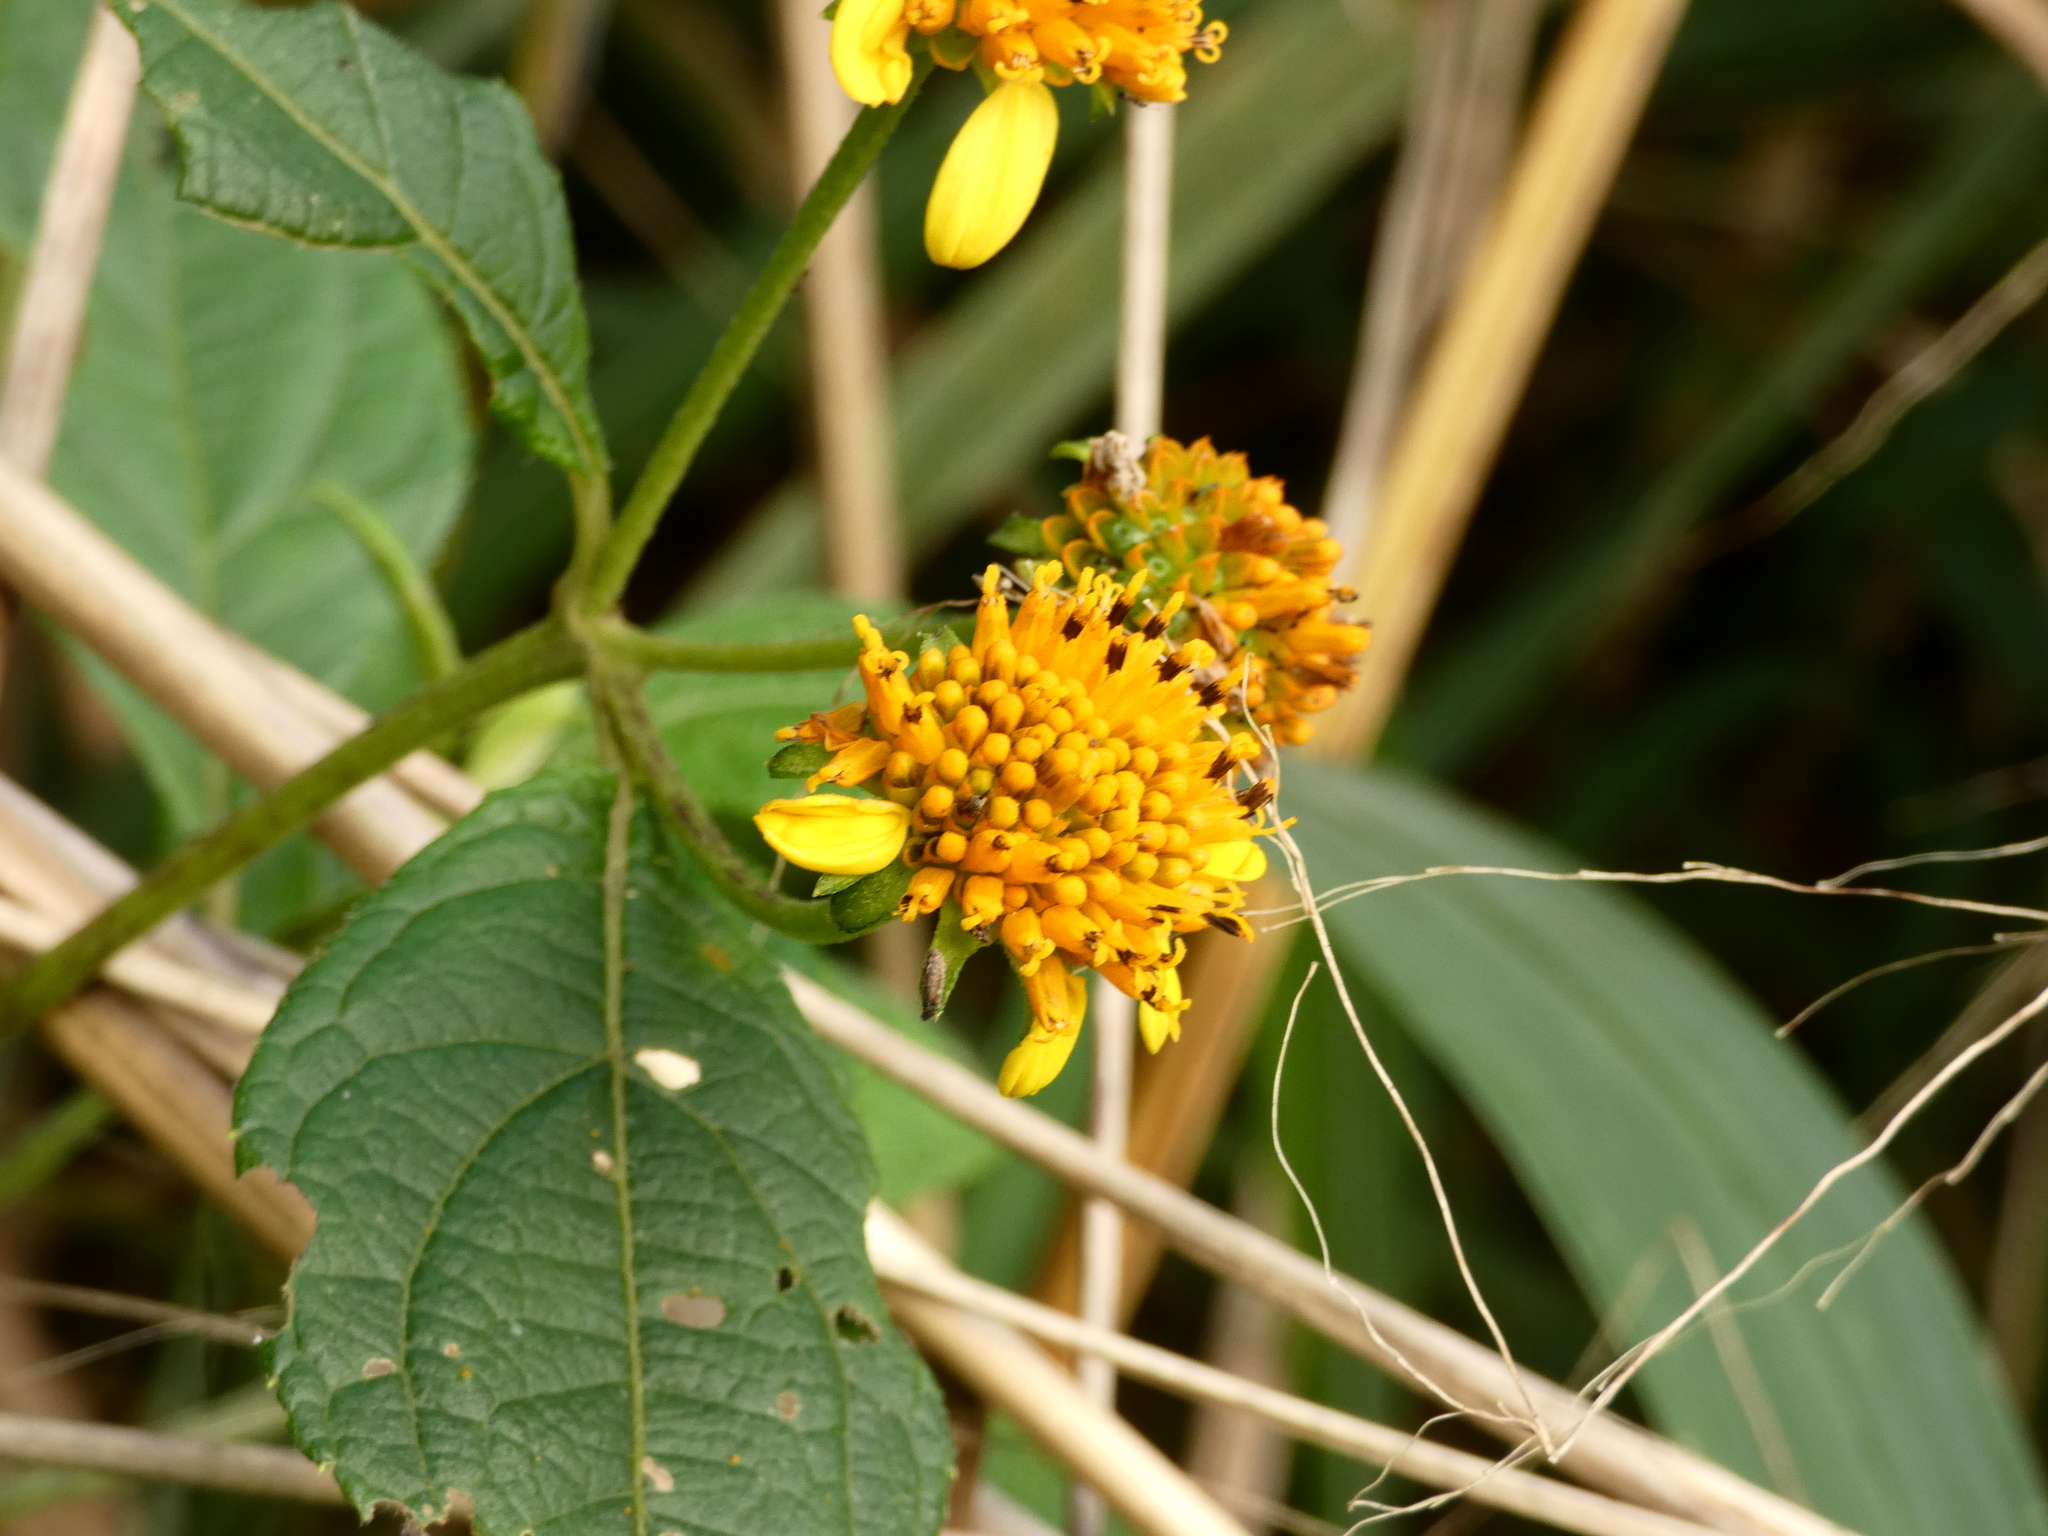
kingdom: Plantae
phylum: Tracheophyta
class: Magnoliopsida
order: Asterales
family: Asteraceae
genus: Tilesia
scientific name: Tilesia baccata
